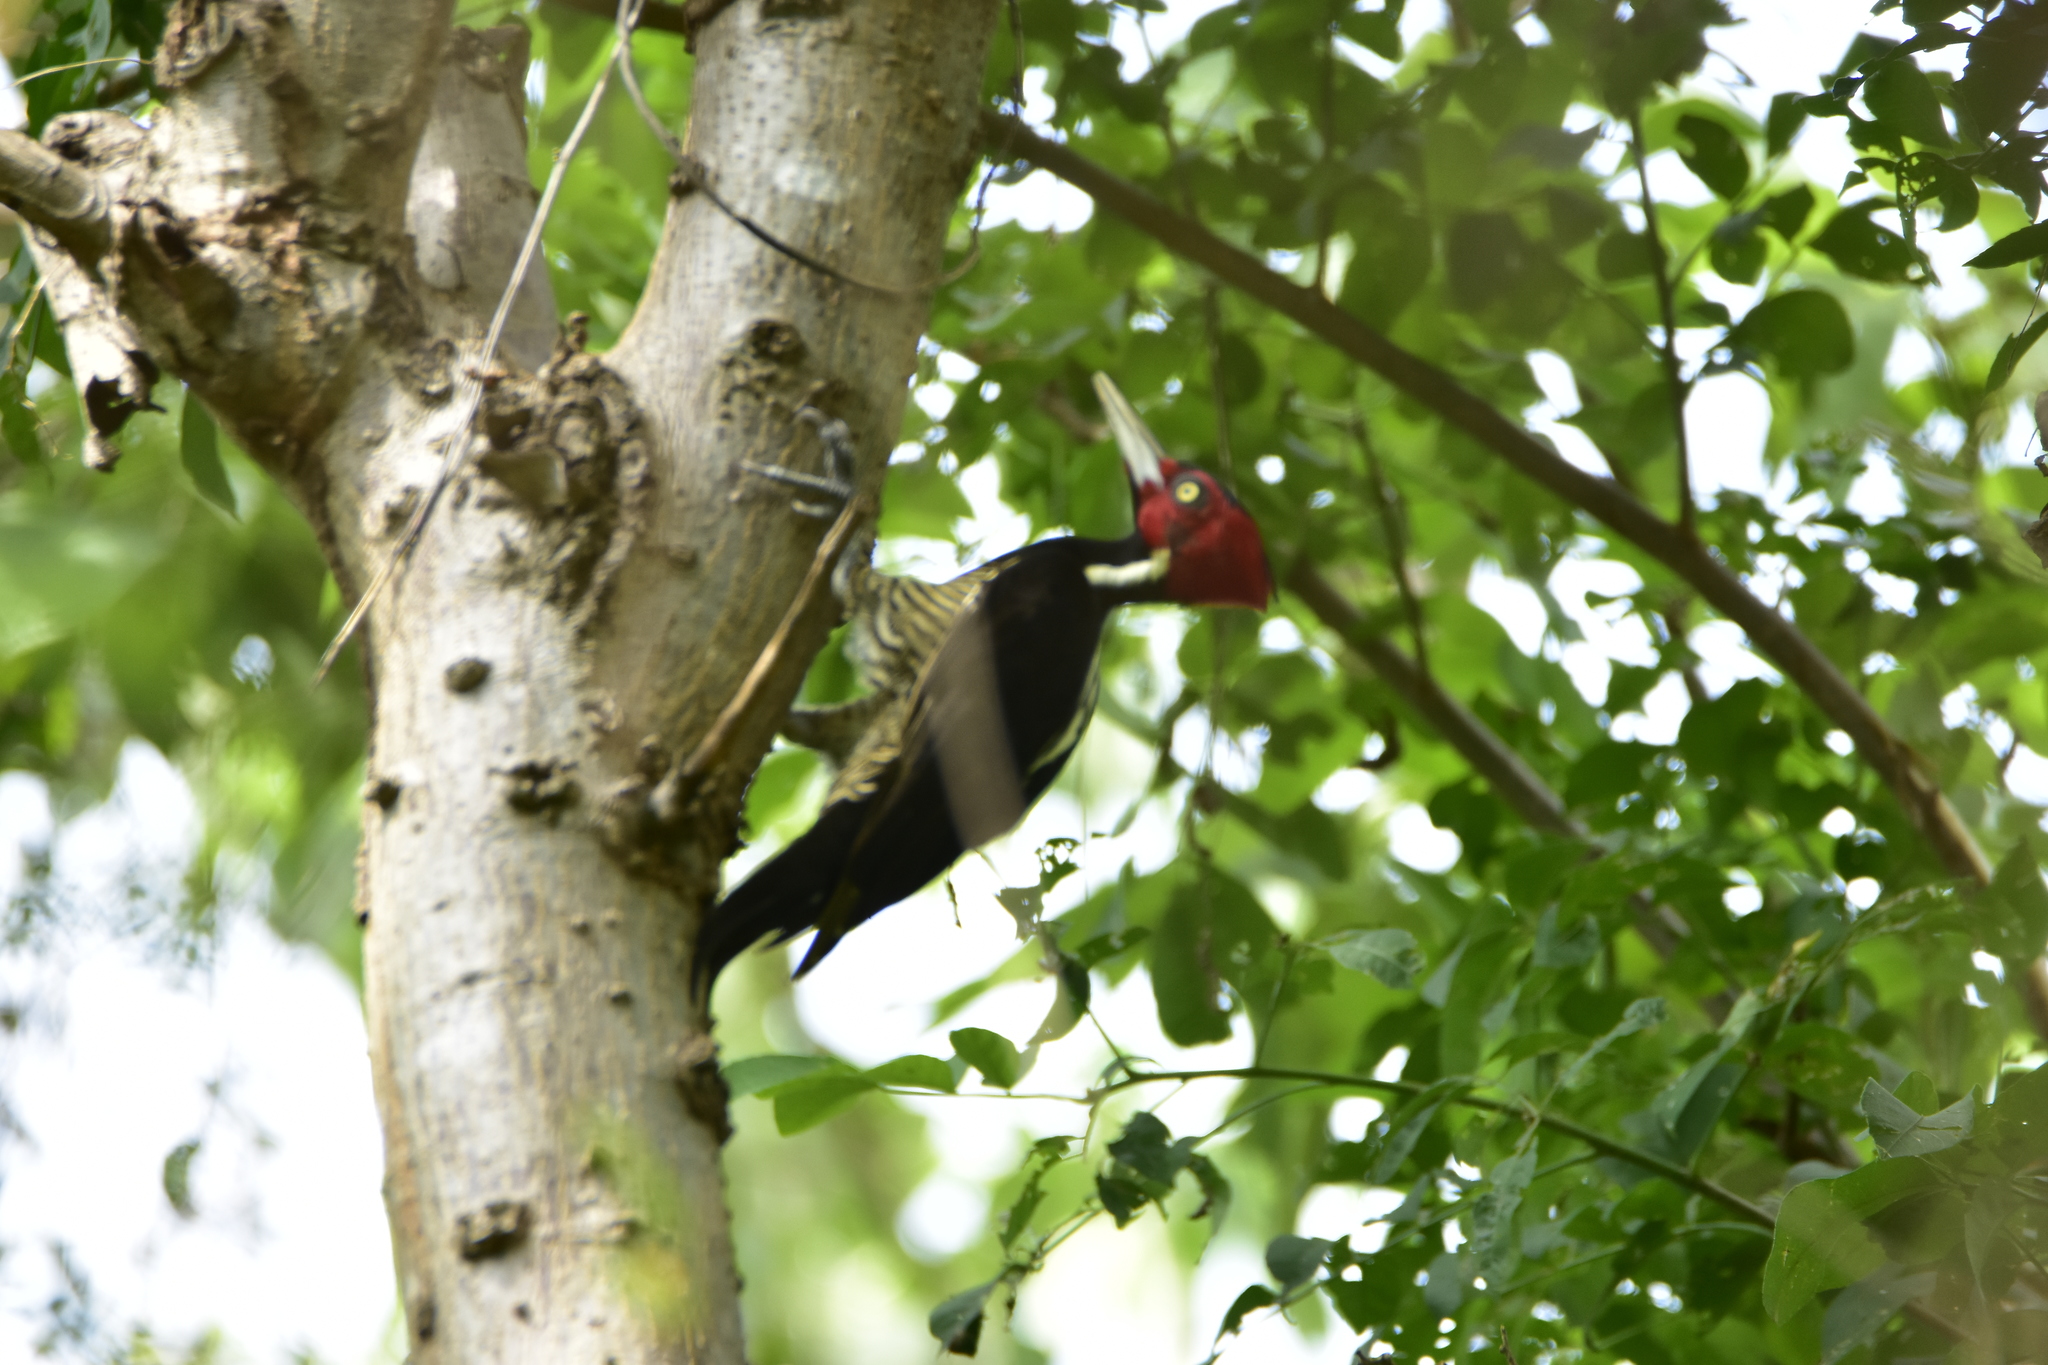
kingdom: Animalia
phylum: Chordata
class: Aves
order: Piciformes
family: Picidae
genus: Campephilus
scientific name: Campephilus guatemalensis
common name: Pale-billed woodpecker
